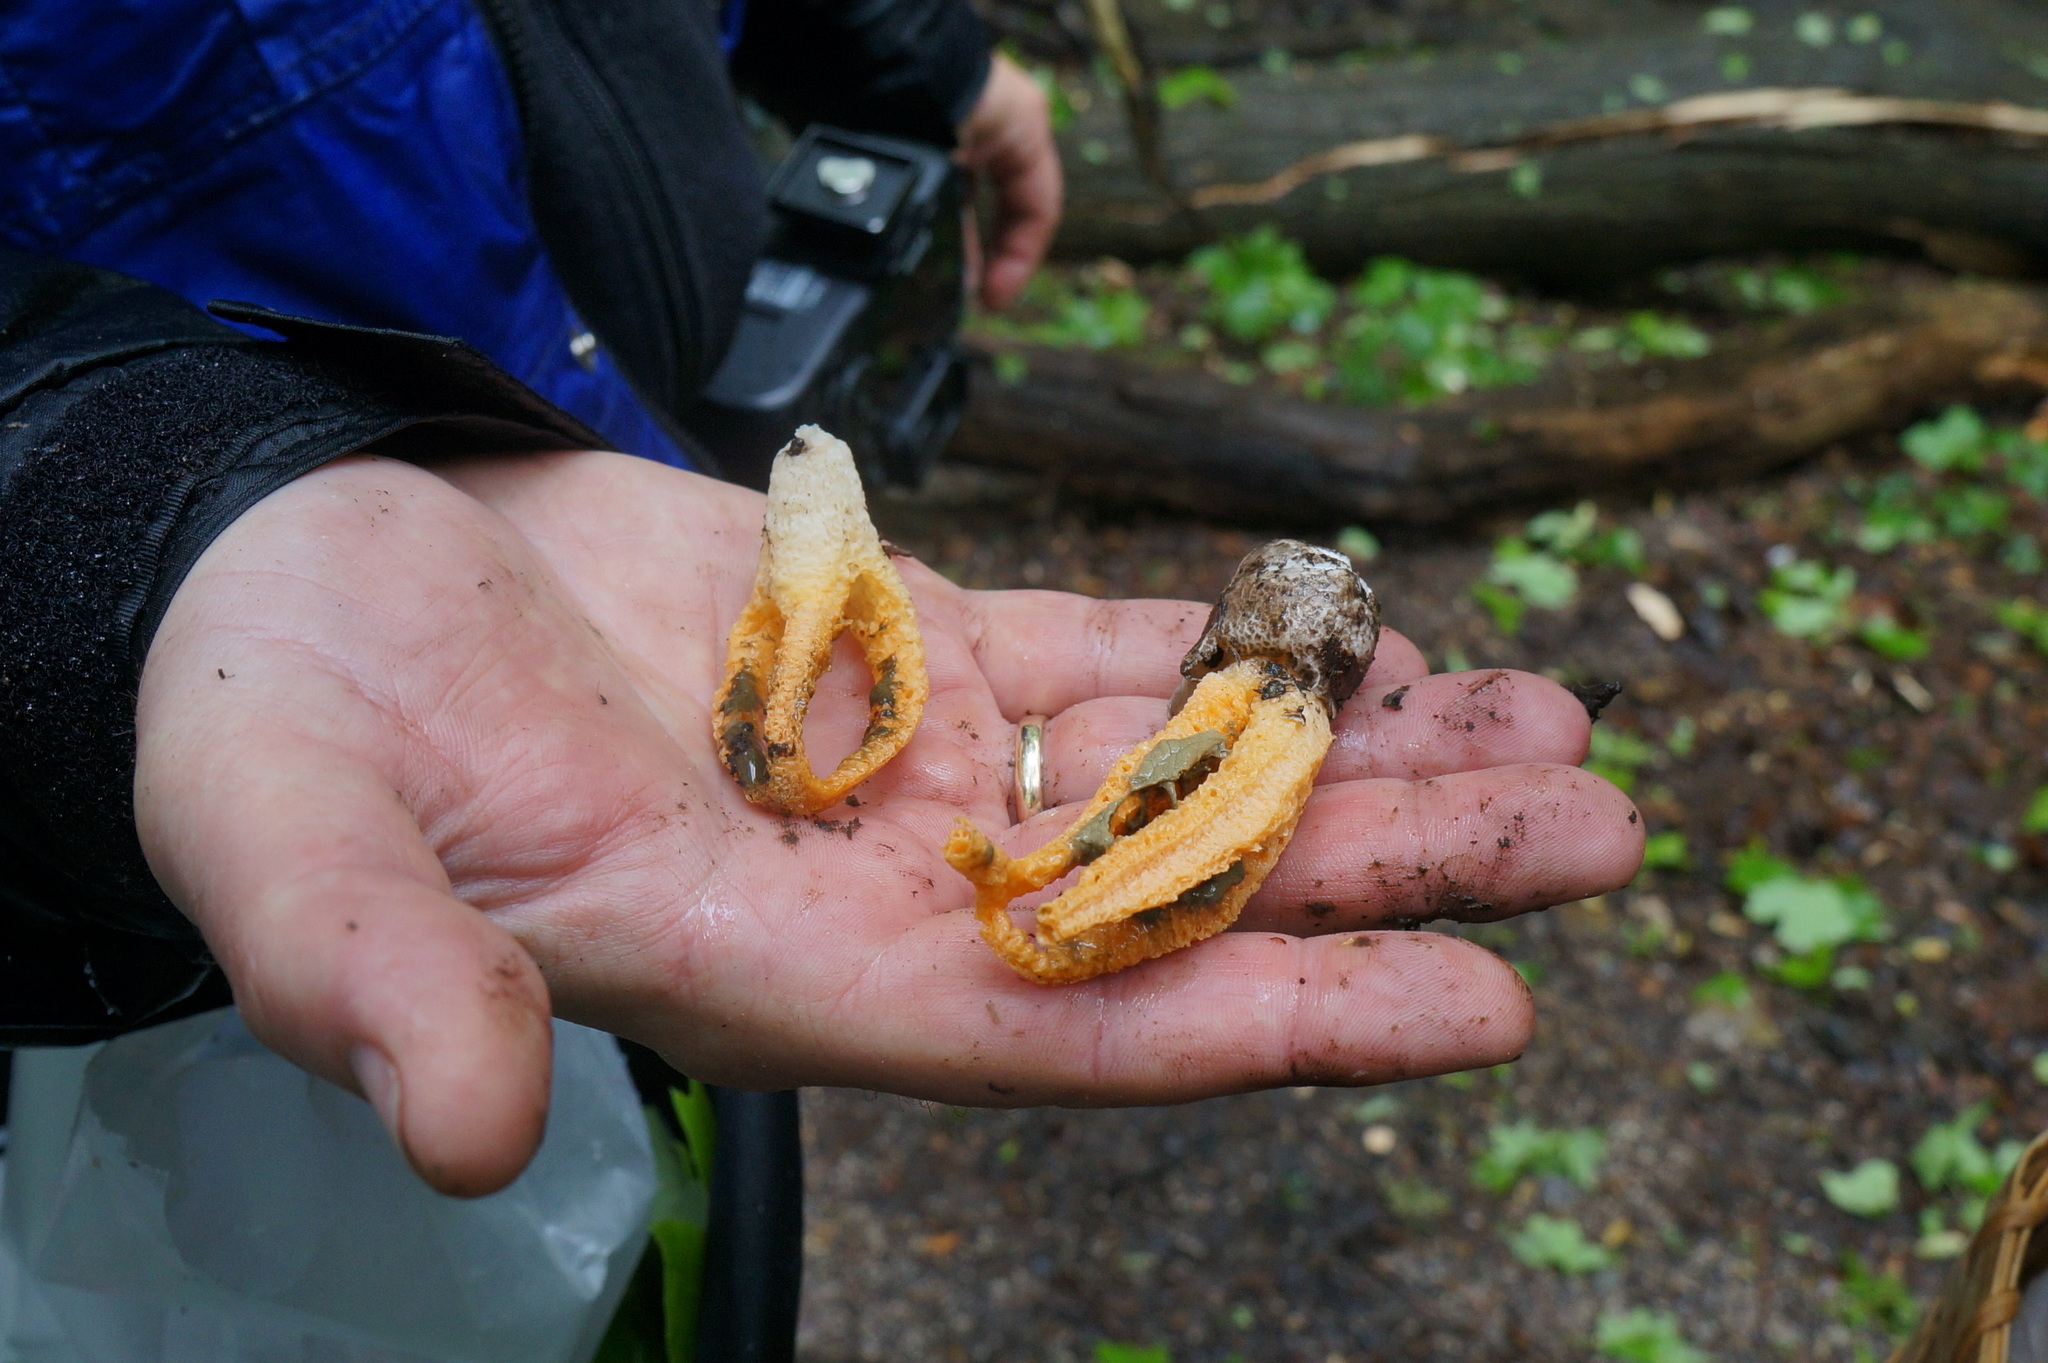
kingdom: Fungi
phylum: Basidiomycota
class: Agaricomycetes
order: Phallales
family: Phallaceae
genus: Pseudocolus
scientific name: Pseudocolus fusiformis
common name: Stinky squid
